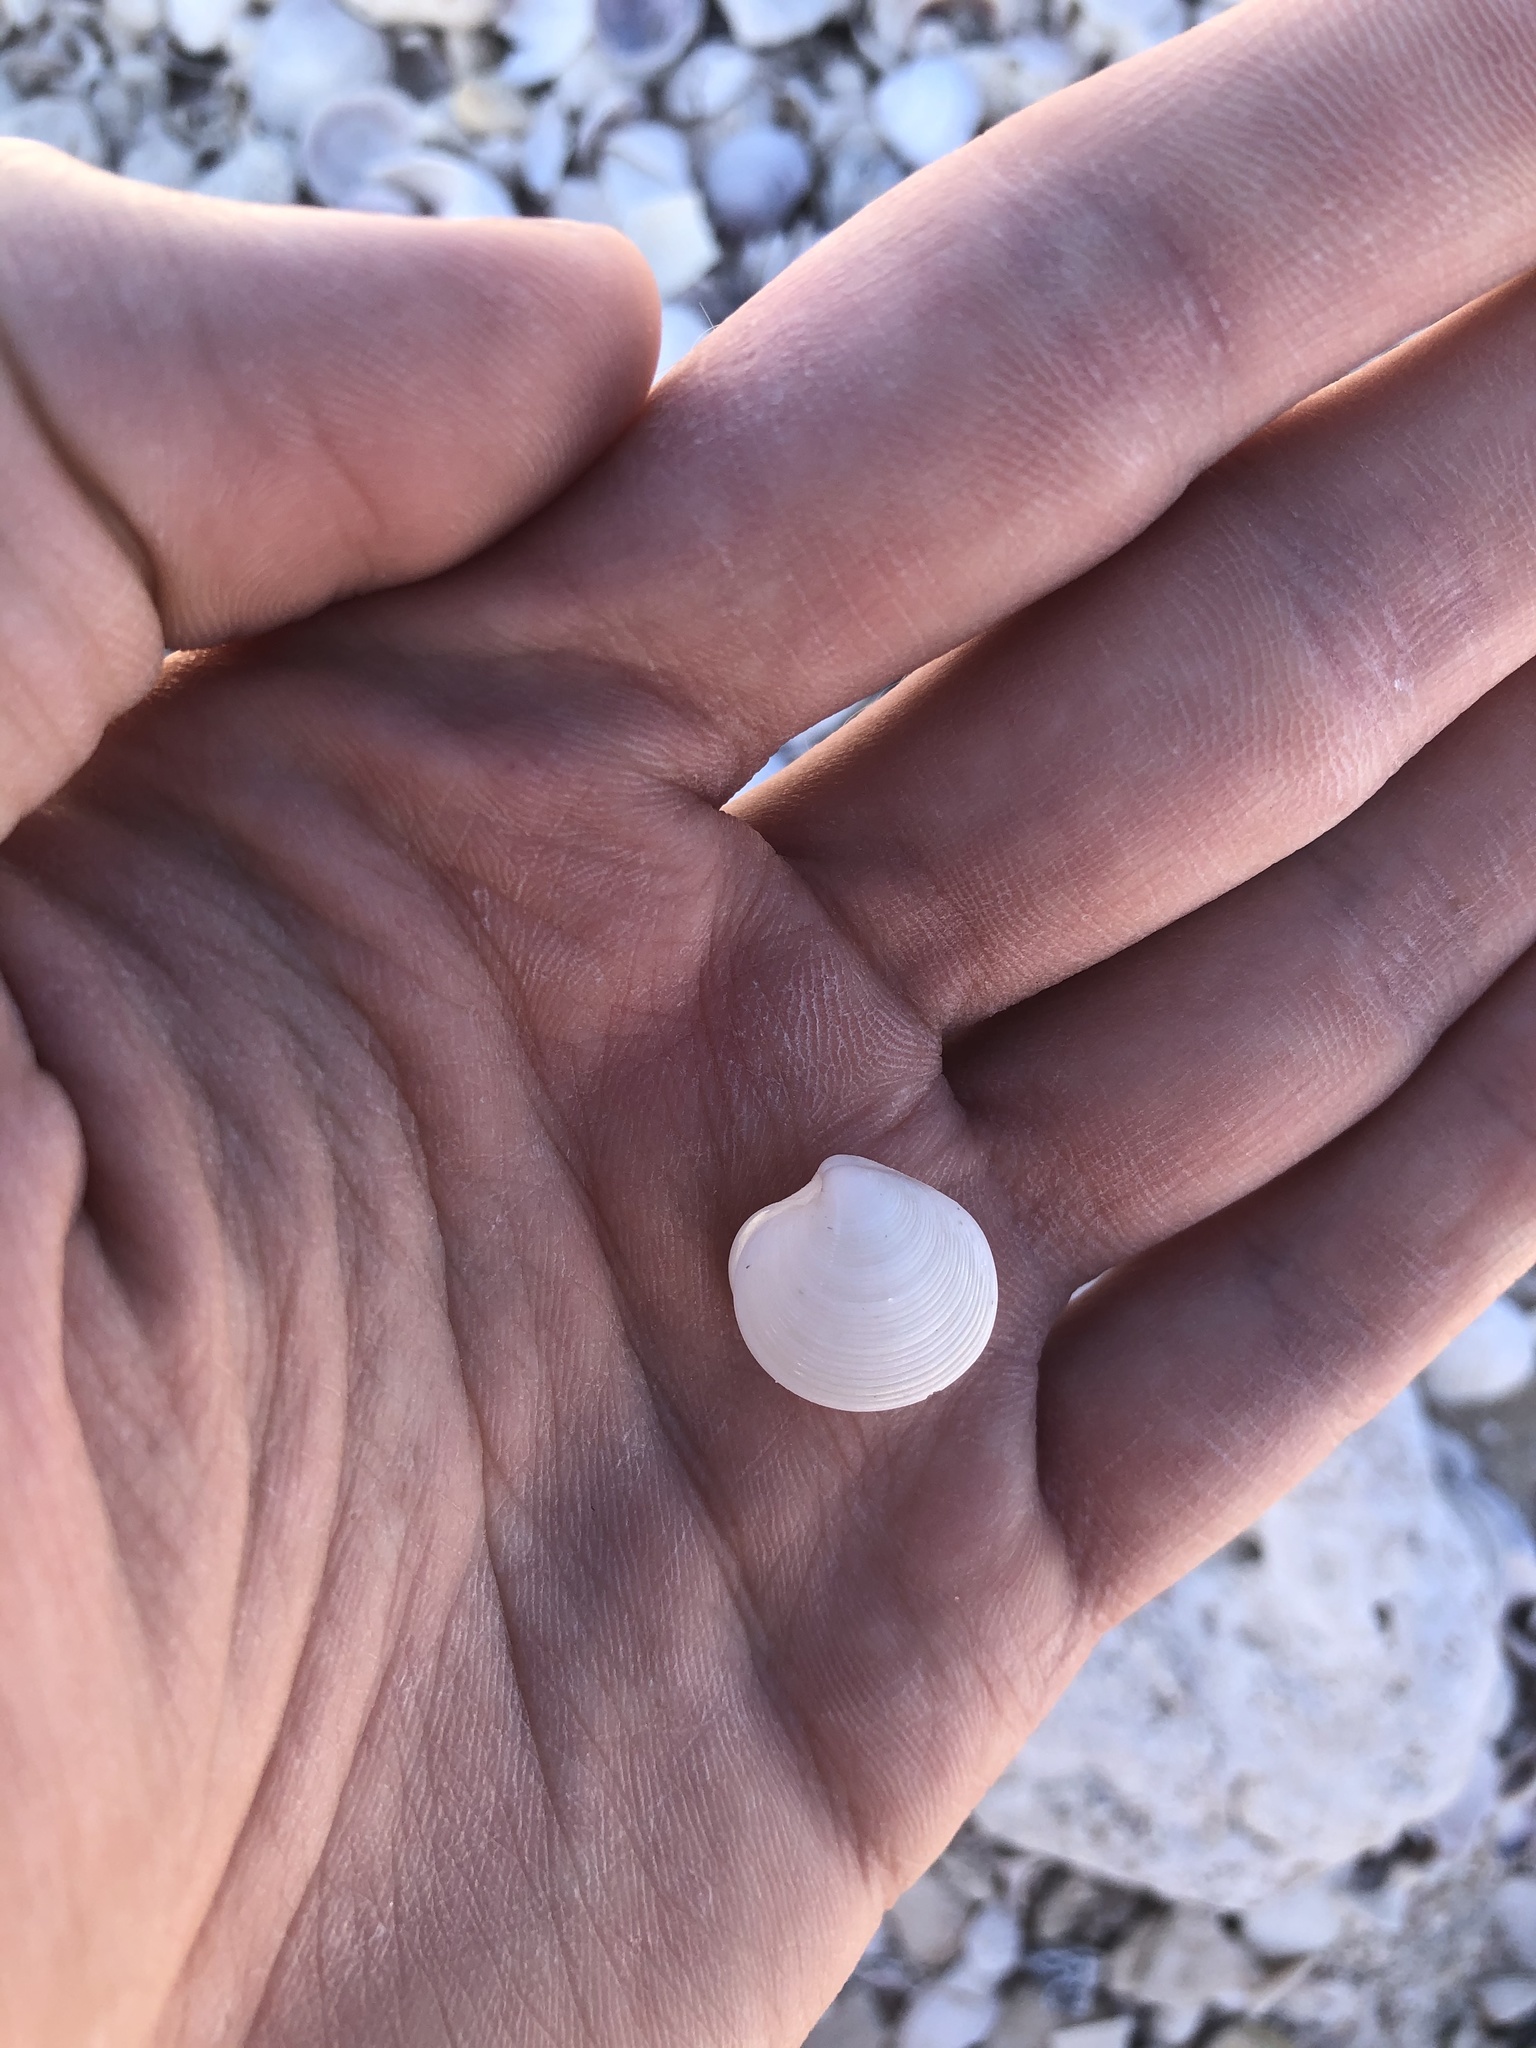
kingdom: Animalia
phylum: Mollusca
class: Bivalvia
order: Venerida
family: Veneridae
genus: Dosinia
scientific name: Dosinia concentrica
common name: Elegant dosinia
